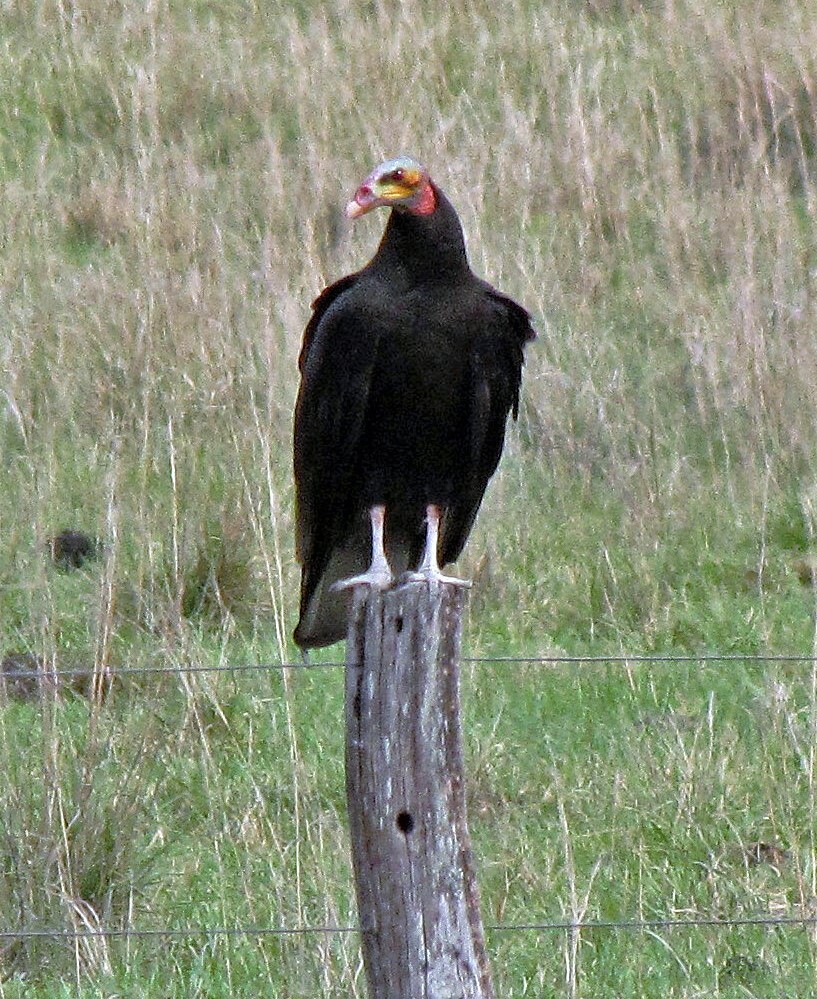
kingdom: Animalia
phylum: Chordata
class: Aves
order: Accipitriformes
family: Cathartidae
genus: Cathartes
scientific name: Cathartes burrovianus
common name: Lesser yellow-headed vulture
